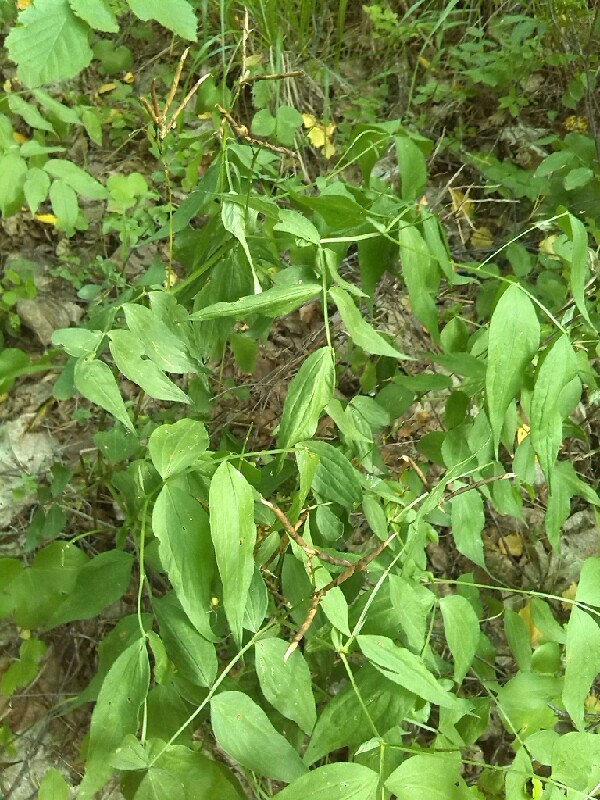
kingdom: Plantae
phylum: Tracheophyta
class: Magnoliopsida
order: Fabales
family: Fabaceae
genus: Lathyrus
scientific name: Lathyrus vernus
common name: Spring pea
